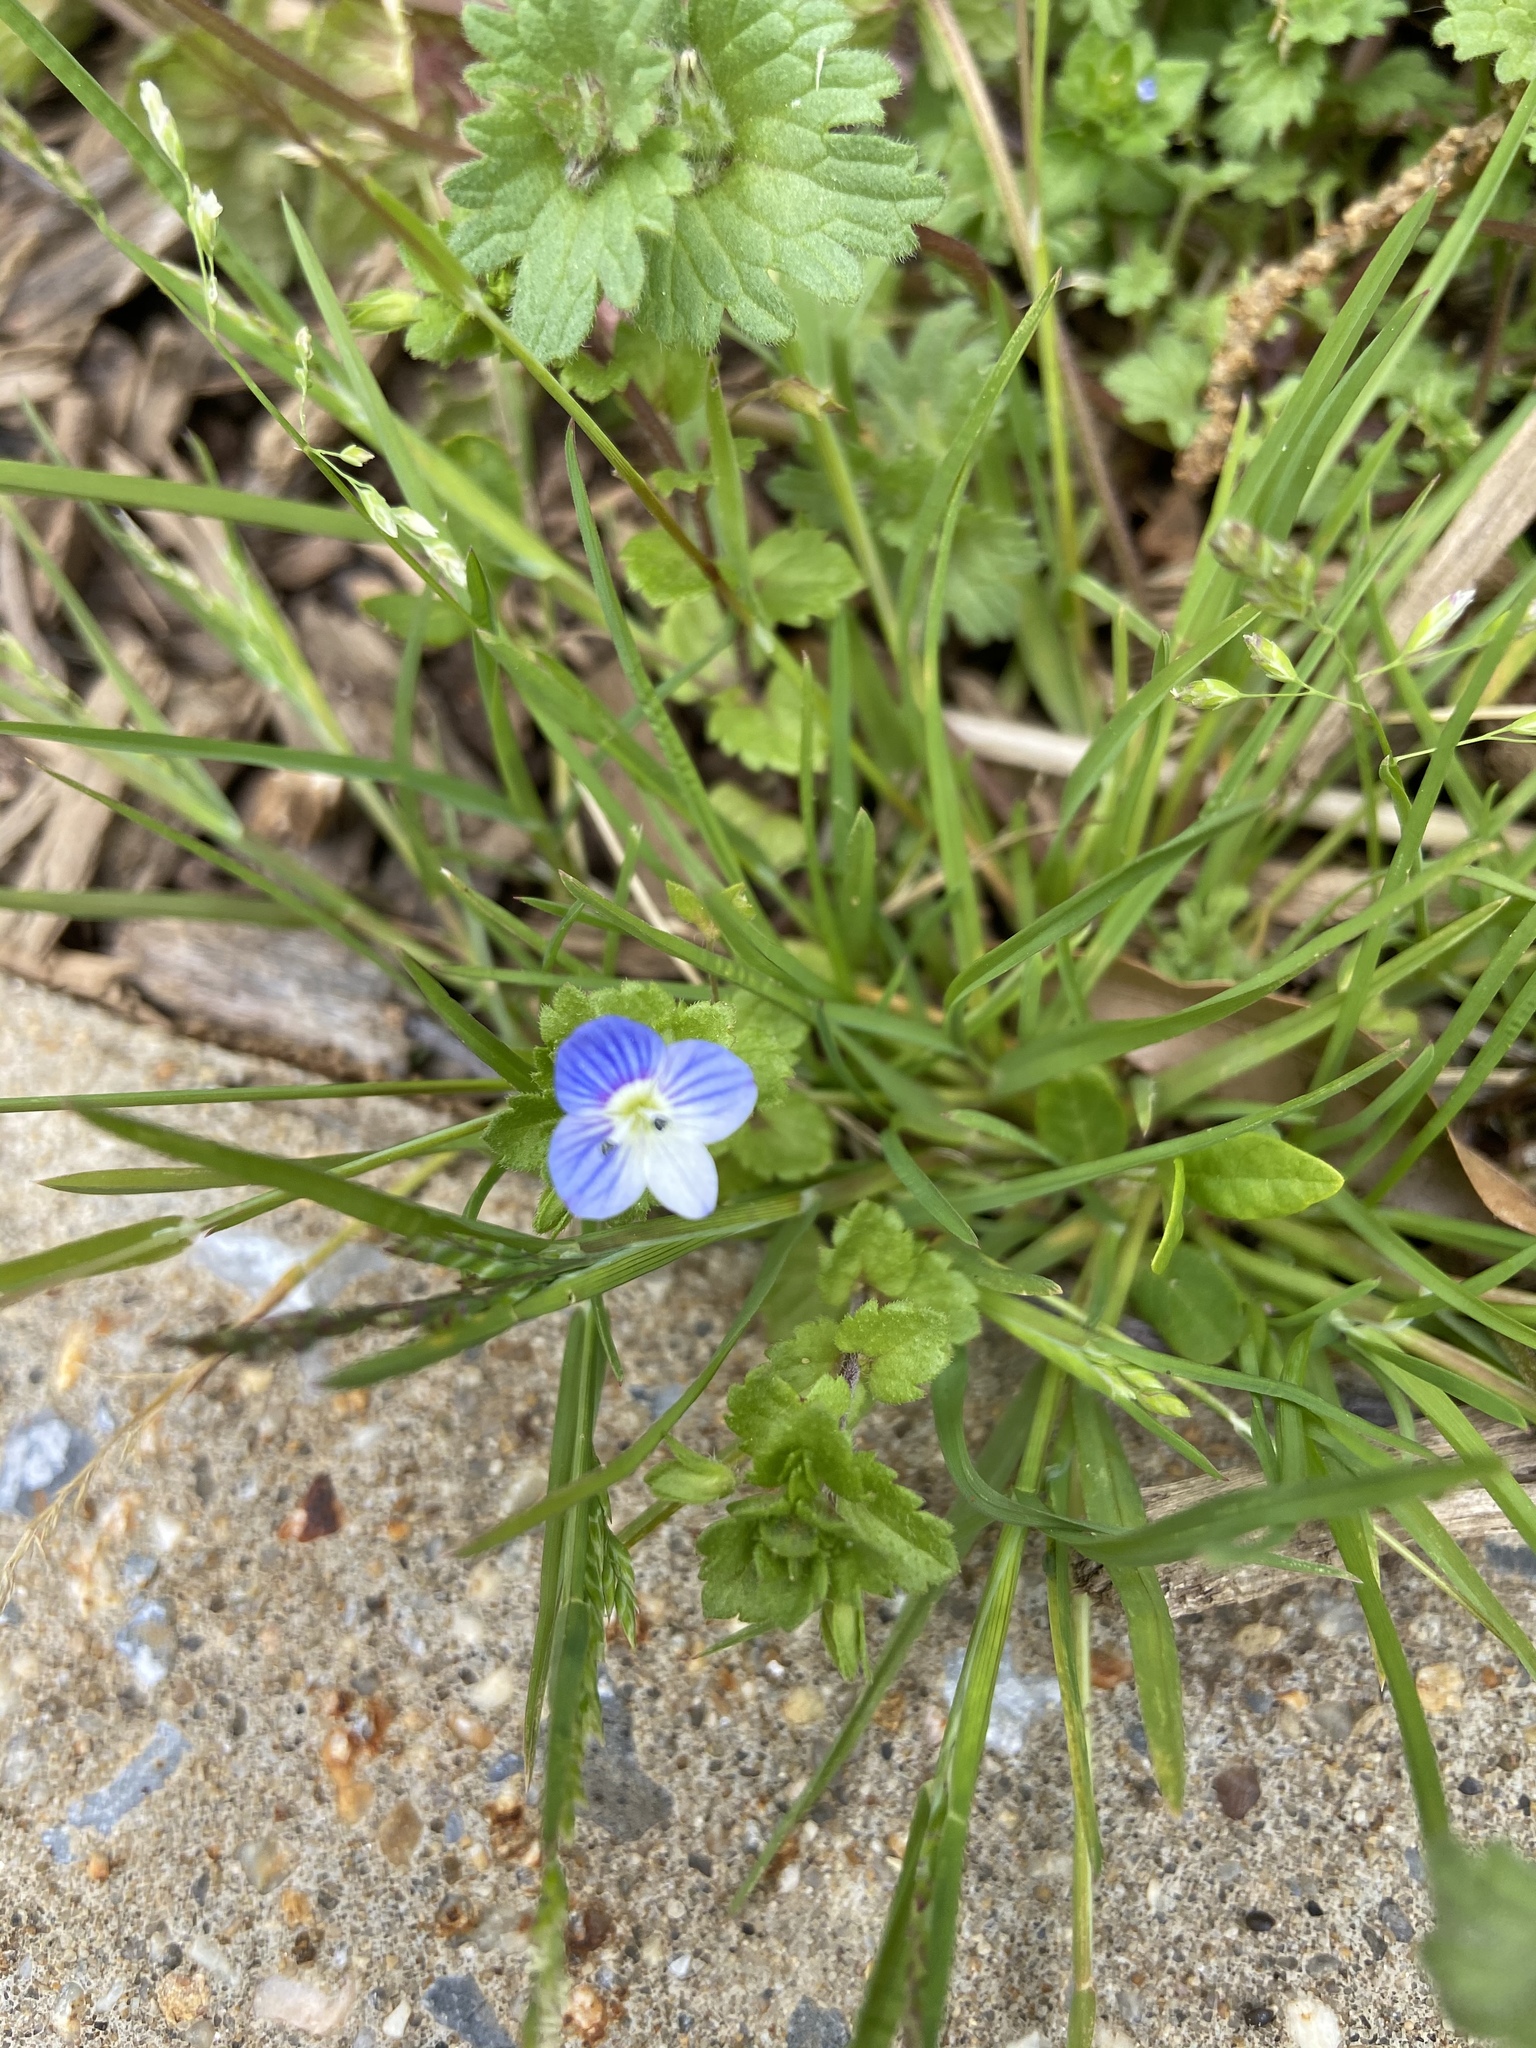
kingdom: Plantae
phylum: Tracheophyta
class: Magnoliopsida
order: Lamiales
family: Plantaginaceae
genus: Veronica
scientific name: Veronica persica
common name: Common field-speedwell
